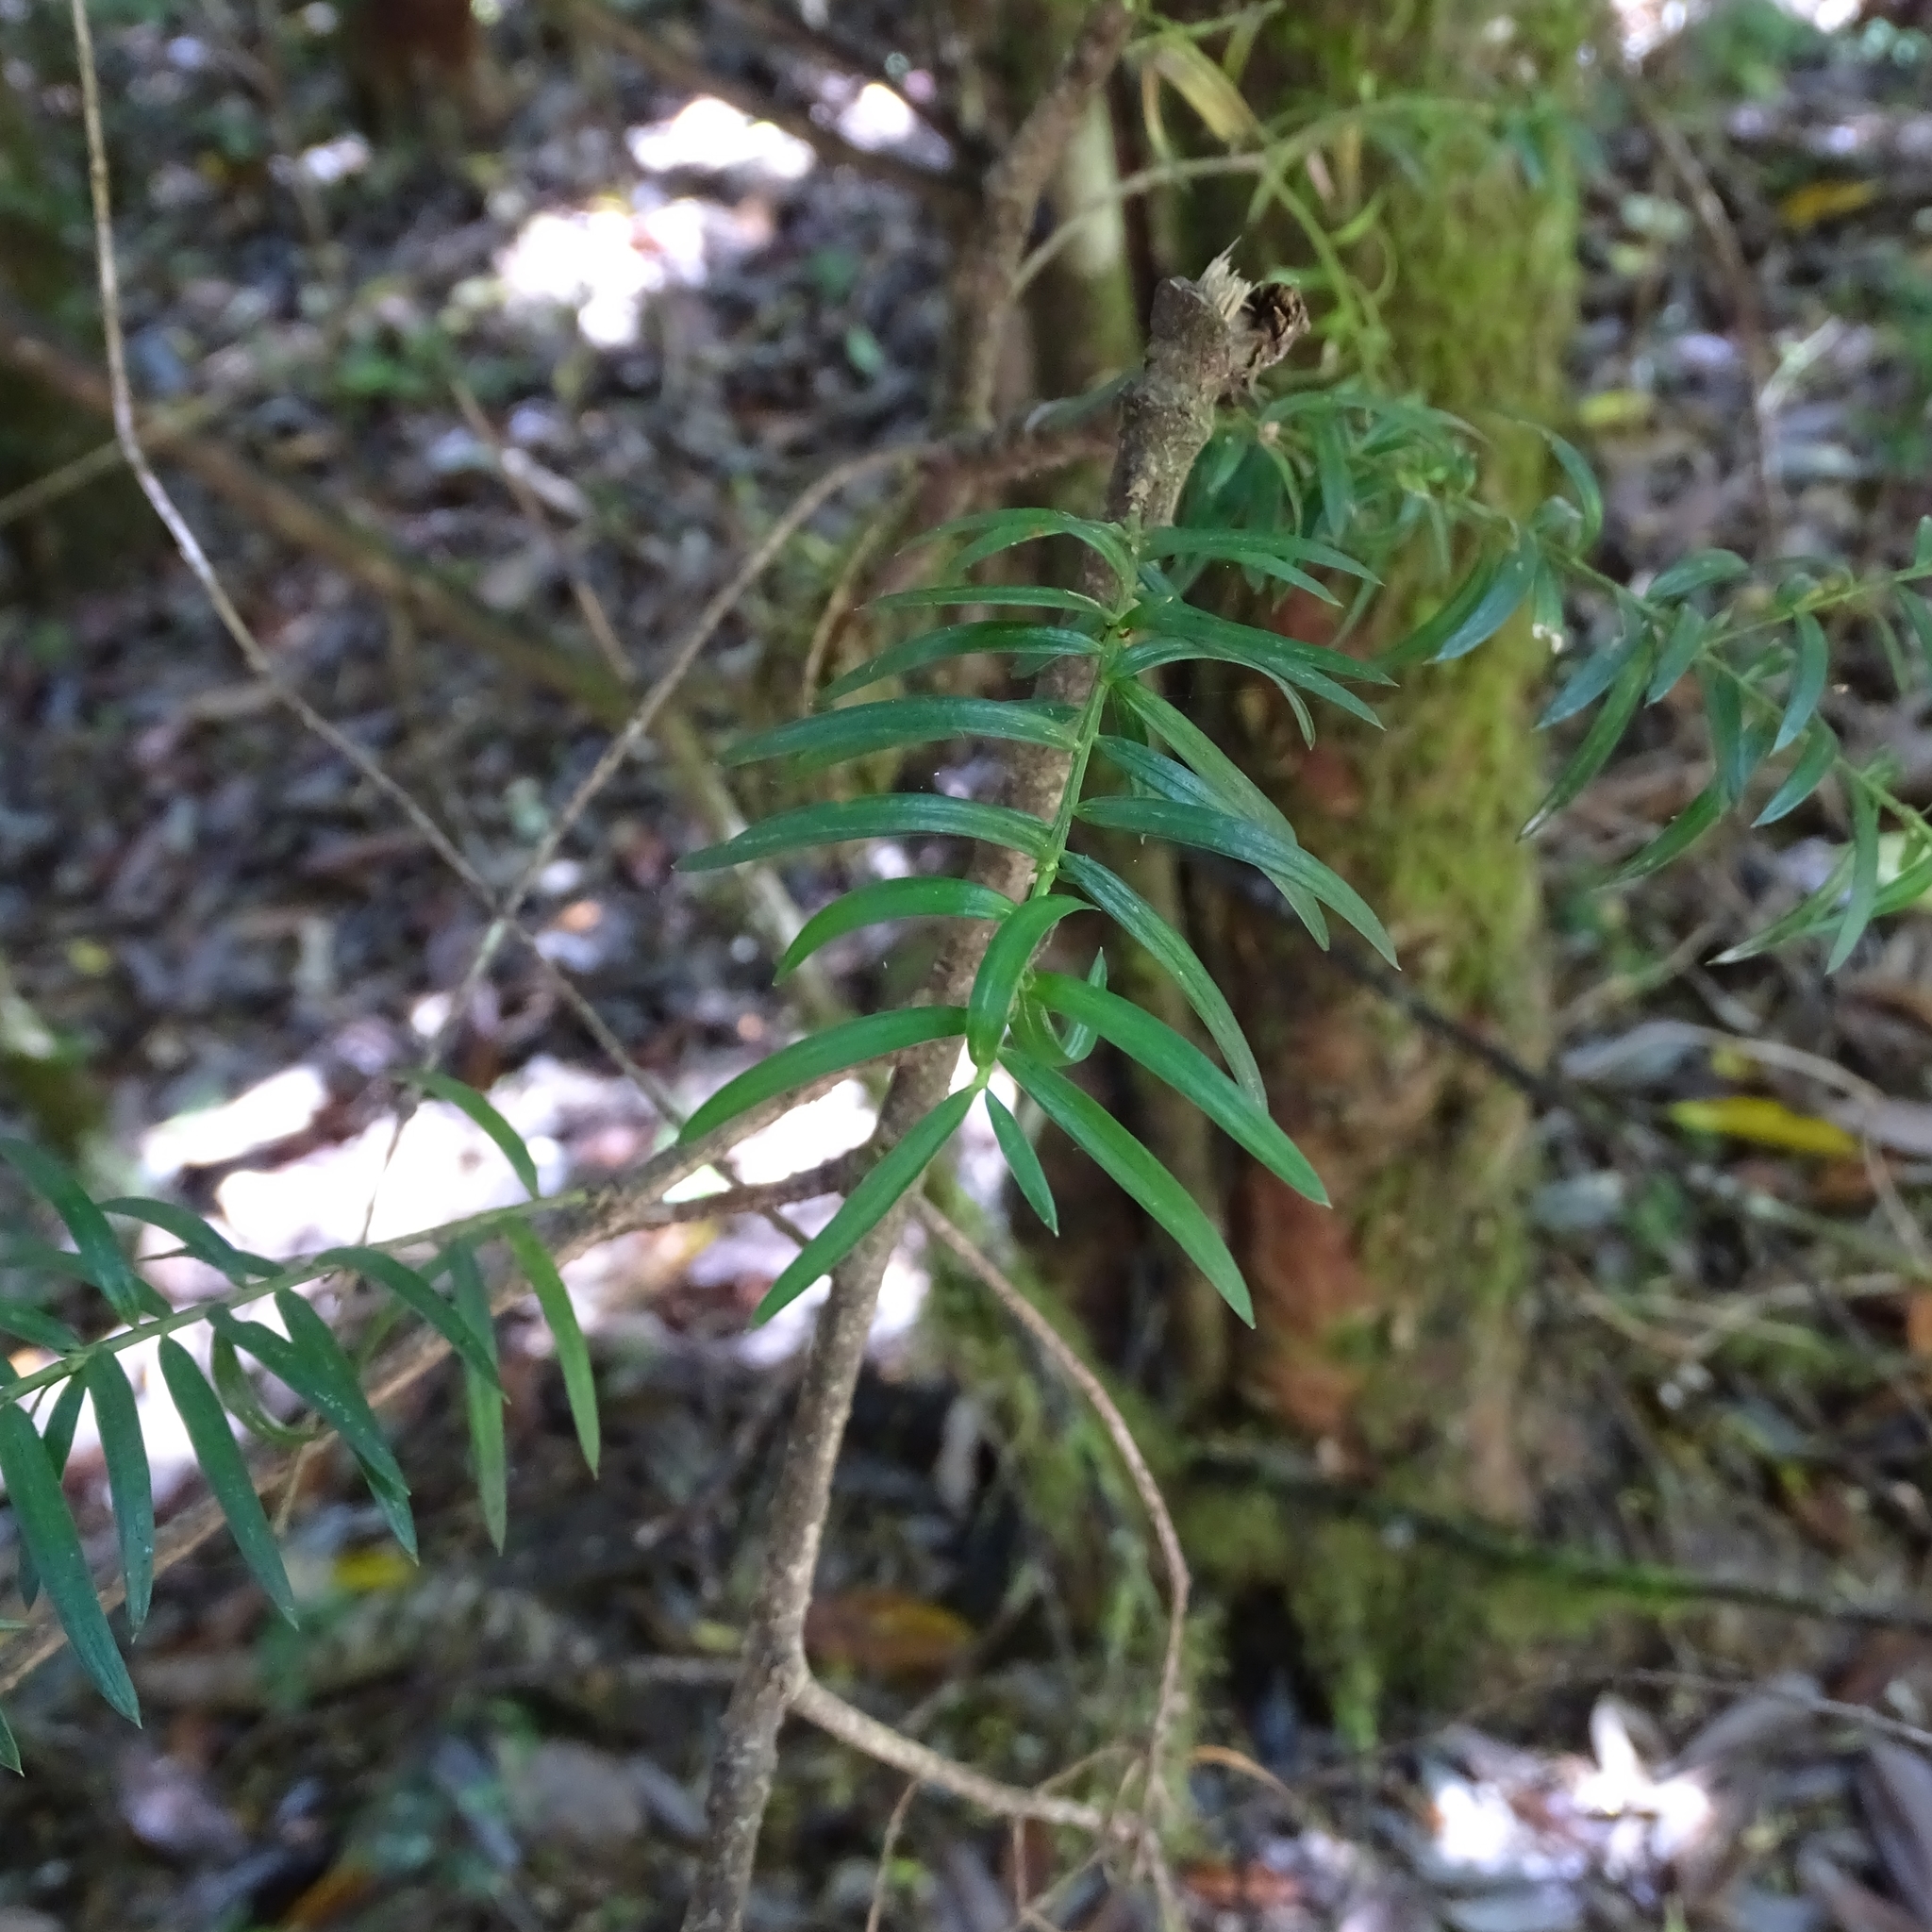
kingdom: Plantae
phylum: Tracheophyta
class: Pinopsida
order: Pinales
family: Podocarpaceae
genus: Saxegothaea
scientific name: Saxegothaea conspicua
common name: Prince albert's yew
